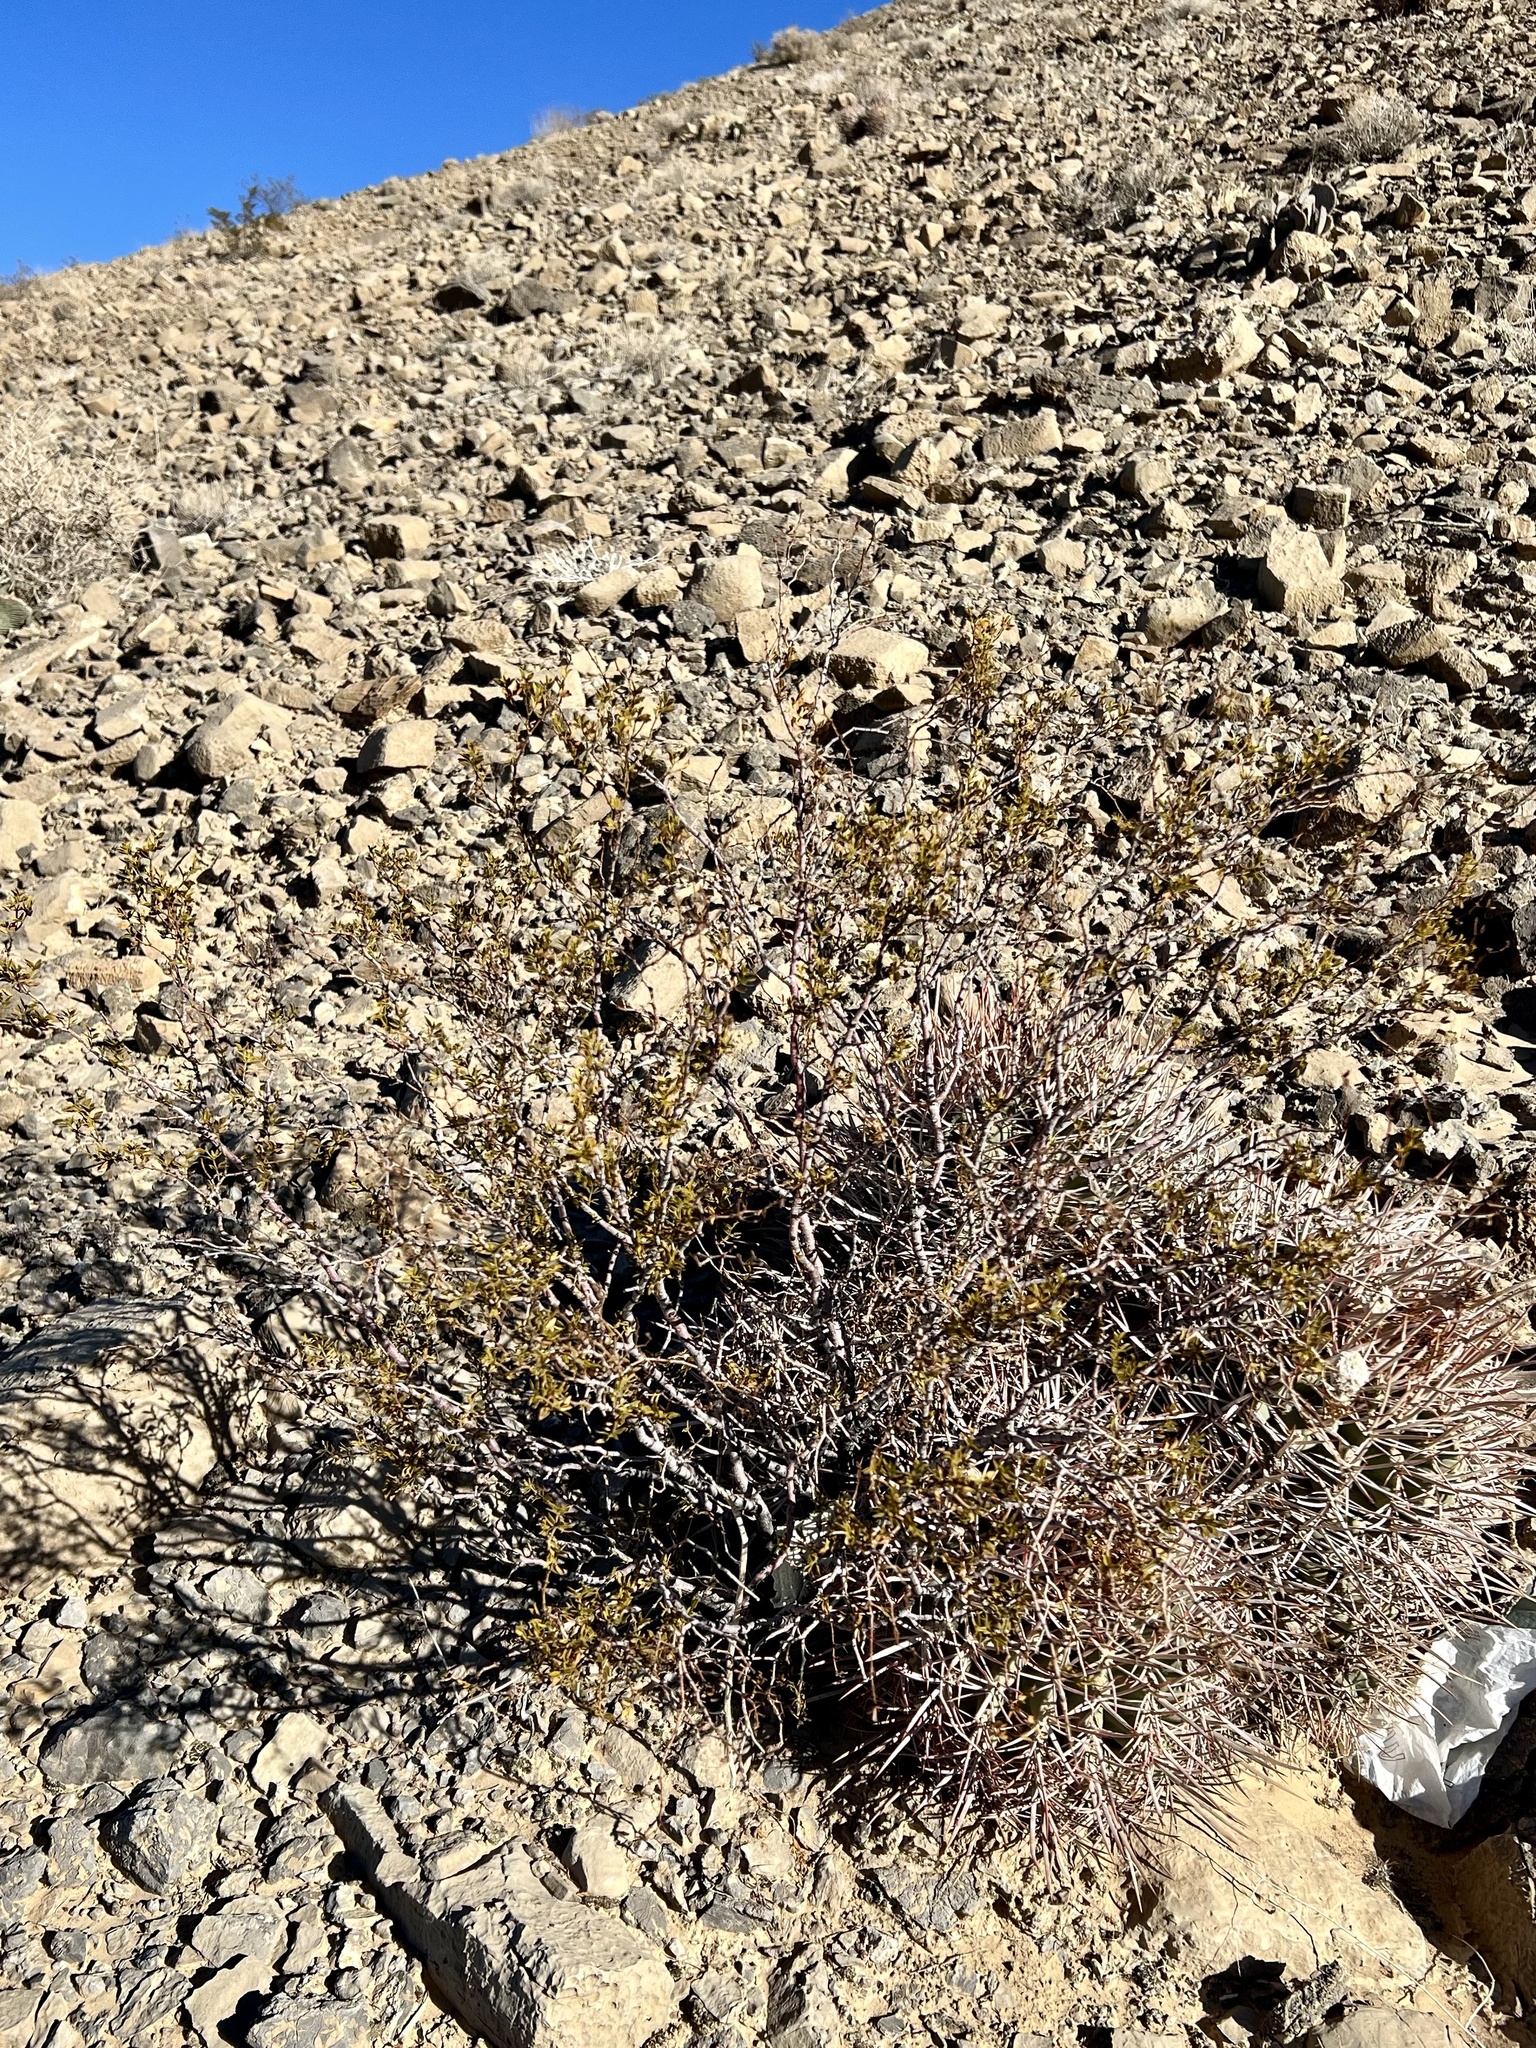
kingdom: Plantae
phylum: Tracheophyta
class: Magnoliopsida
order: Zygophyllales
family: Zygophyllaceae
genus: Larrea
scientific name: Larrea tridentata
